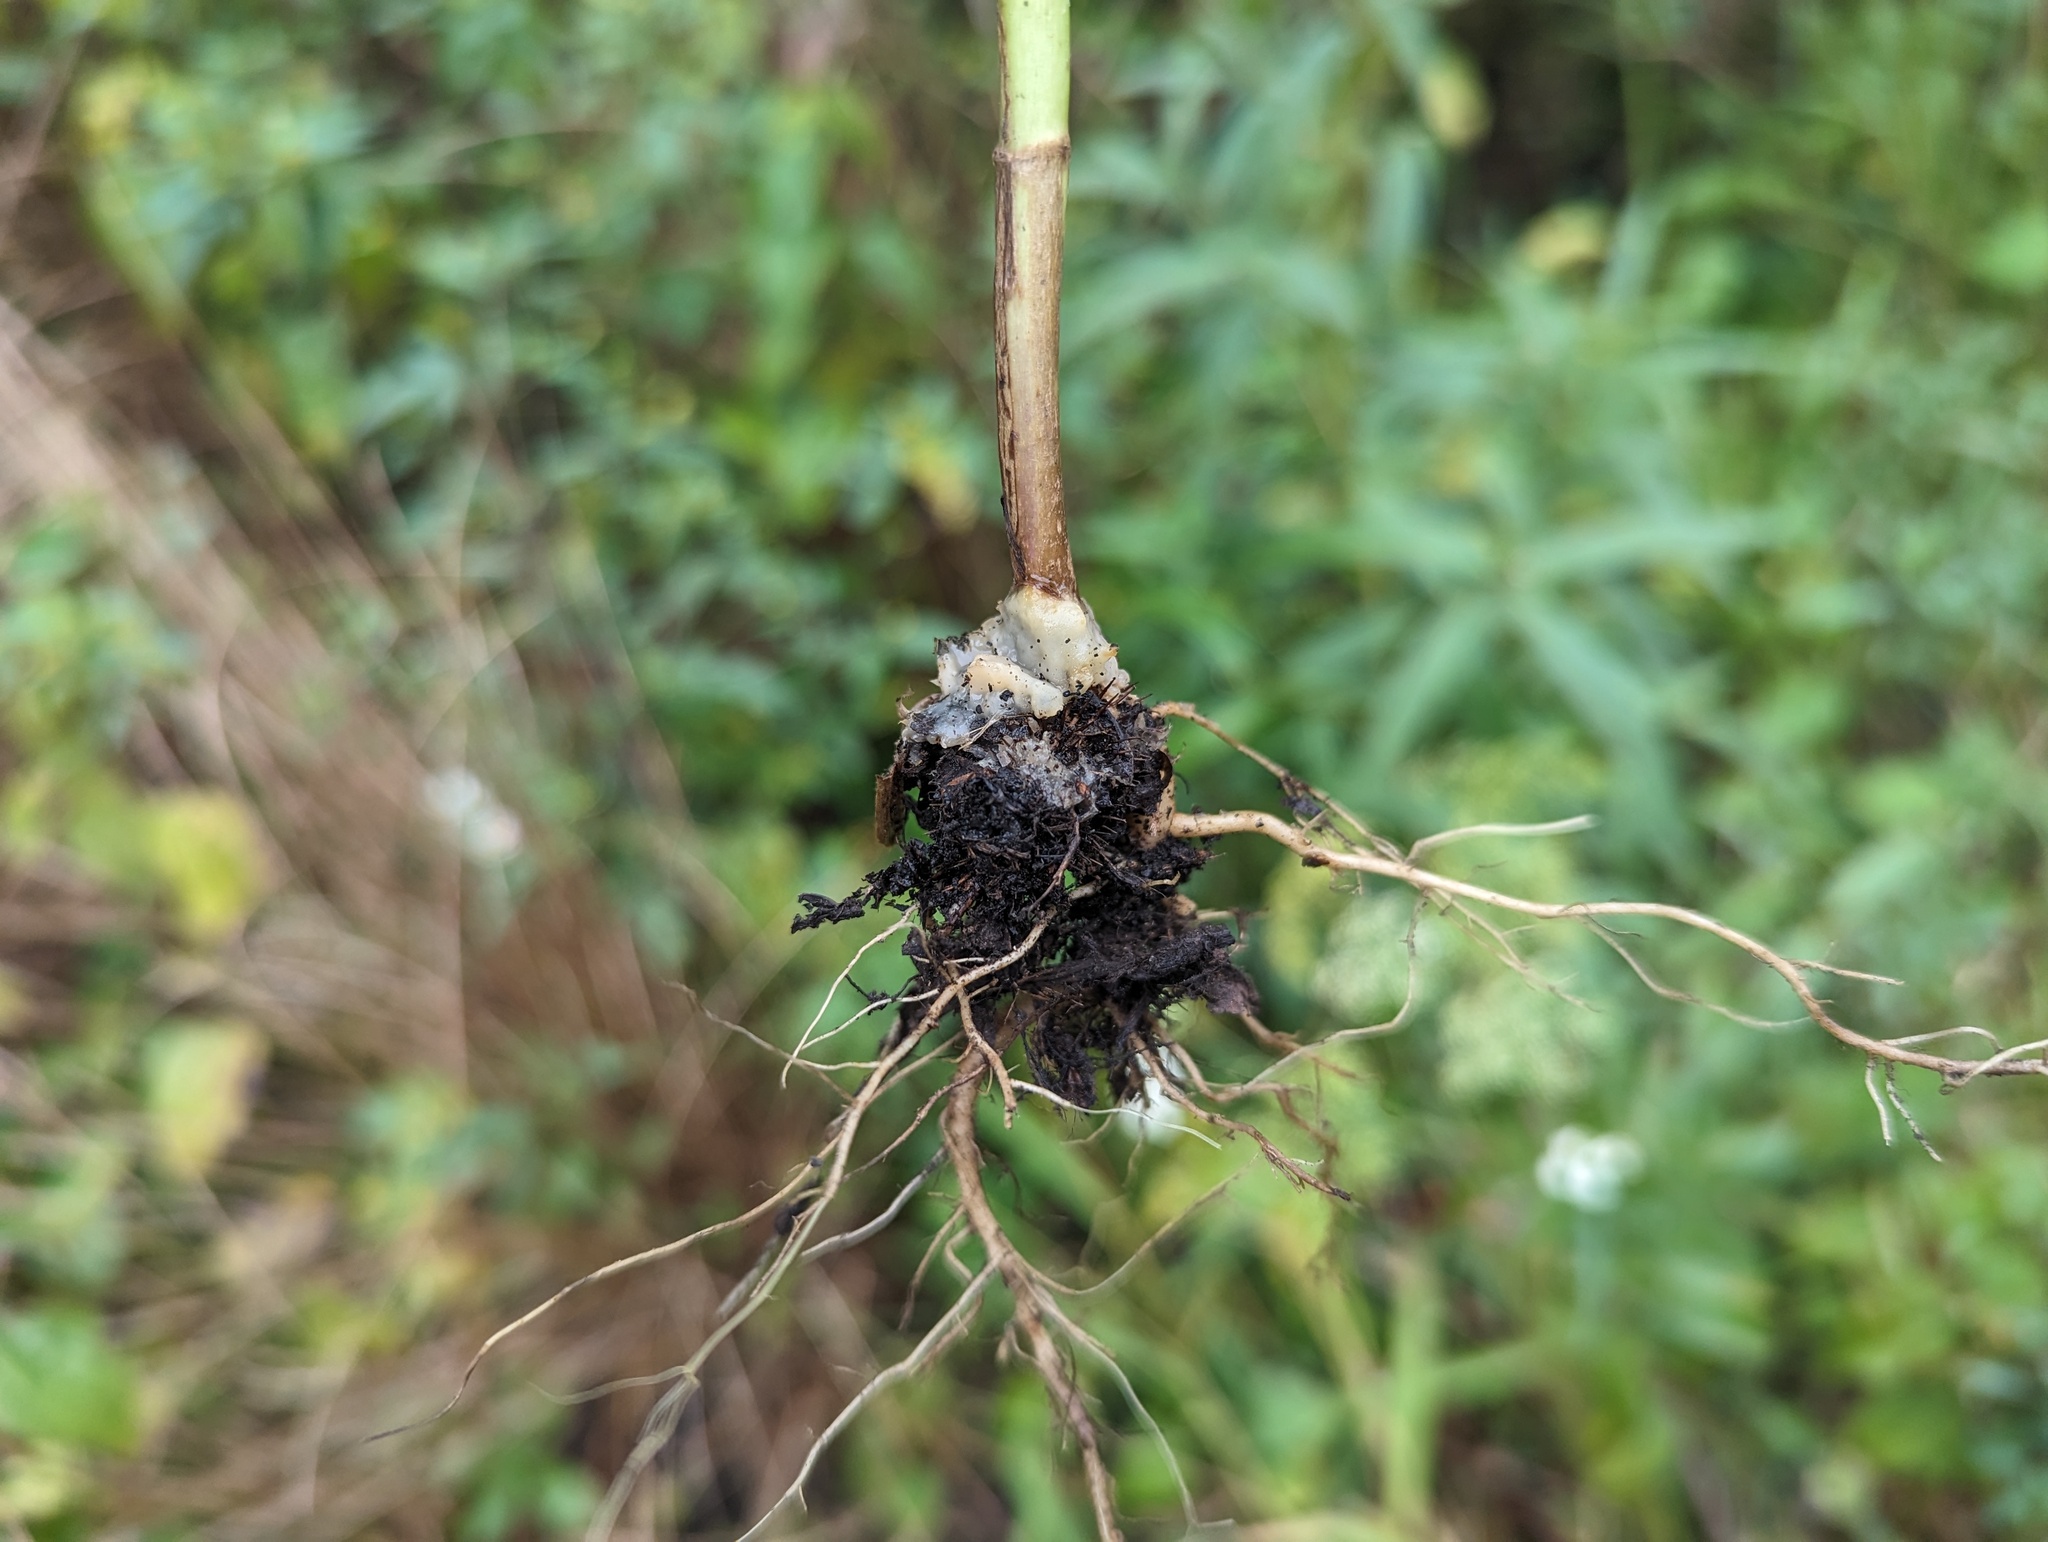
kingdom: Fungi
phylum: Basidiomycota
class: Agaricomycetes
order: Sebacinales
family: Sebacinaceae
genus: Helvellosebacina
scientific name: Helvellosebacina concrescens
